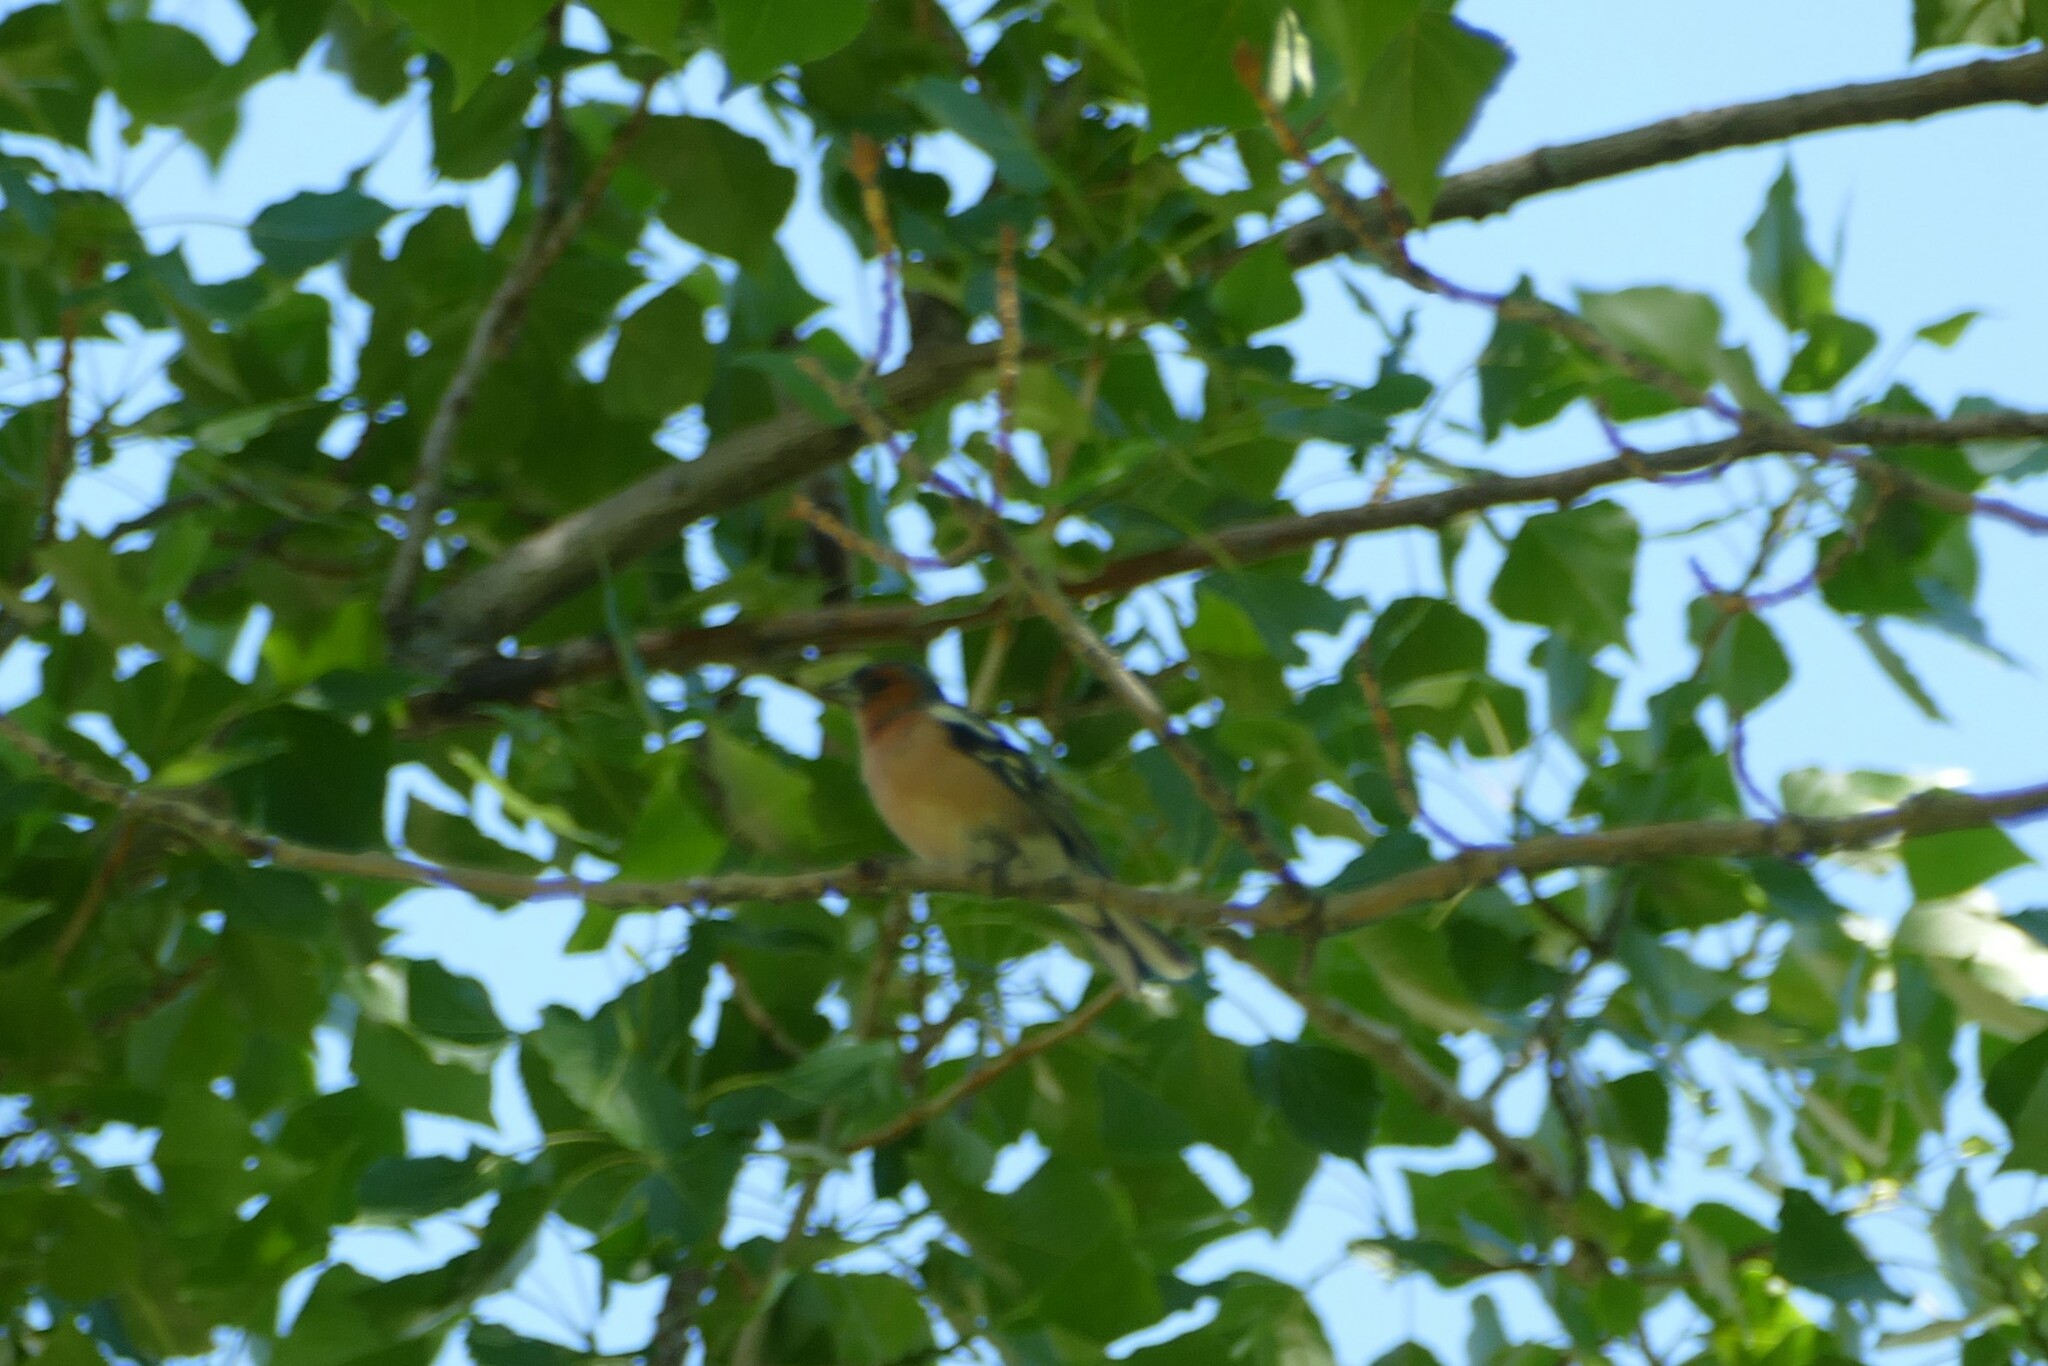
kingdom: Animalia
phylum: Chordata
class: Aves
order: Passeriformes
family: Fringillidae
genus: Fringilla
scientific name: Fringilla coelebs
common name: Common chaffinch
